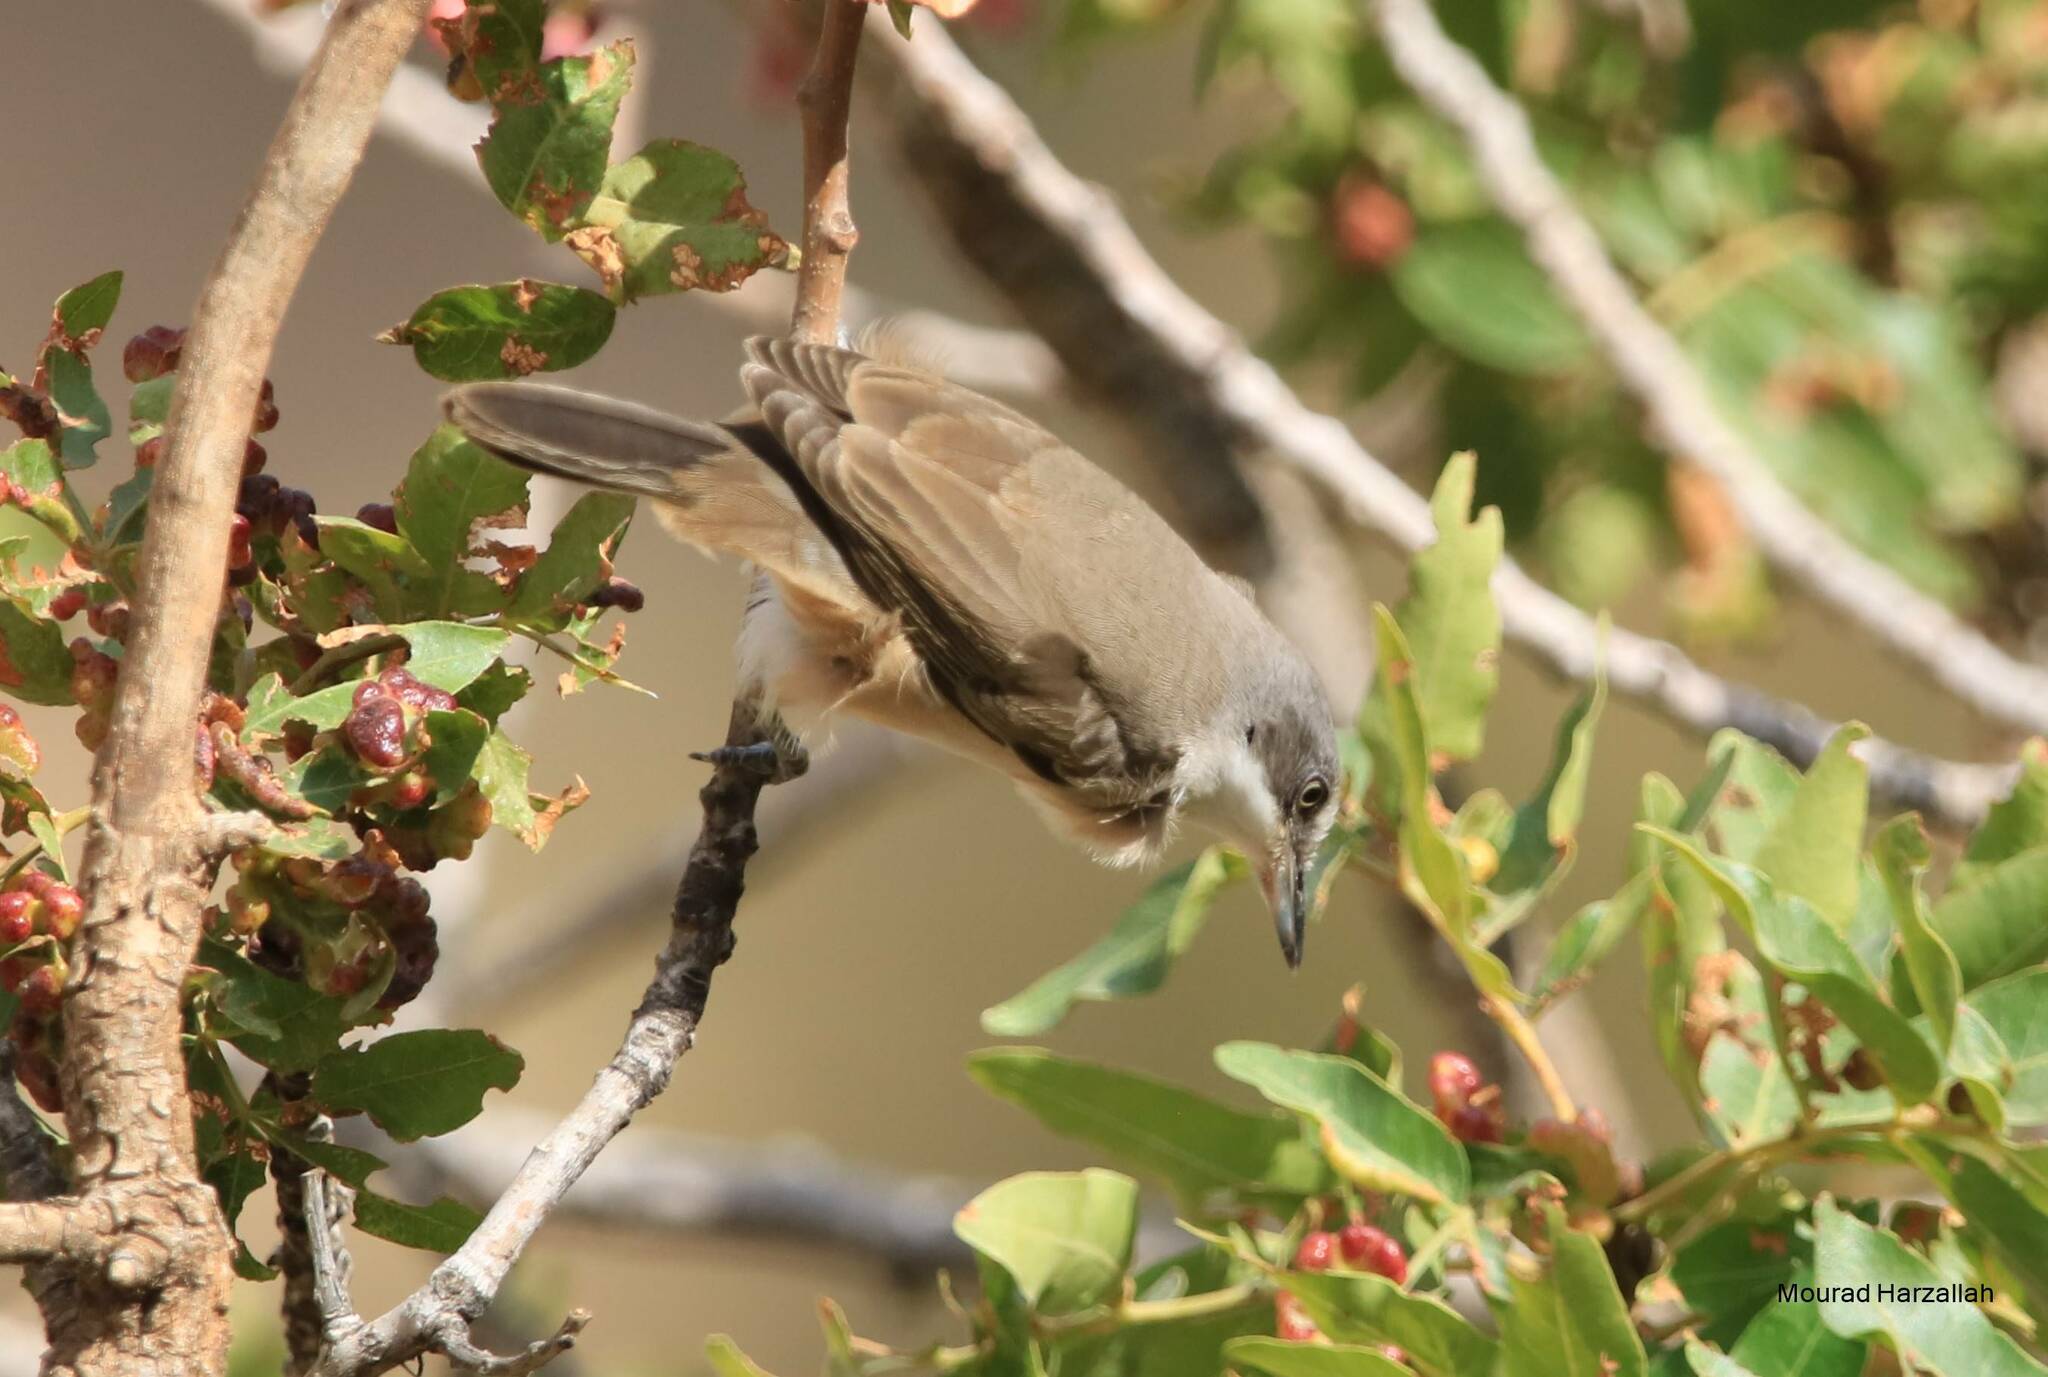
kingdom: Animalia
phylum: Chordata
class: Aves
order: Passeriformes
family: Sylviidae
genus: Sylvia
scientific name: Sylvia hortensis
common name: Orphean warbler
